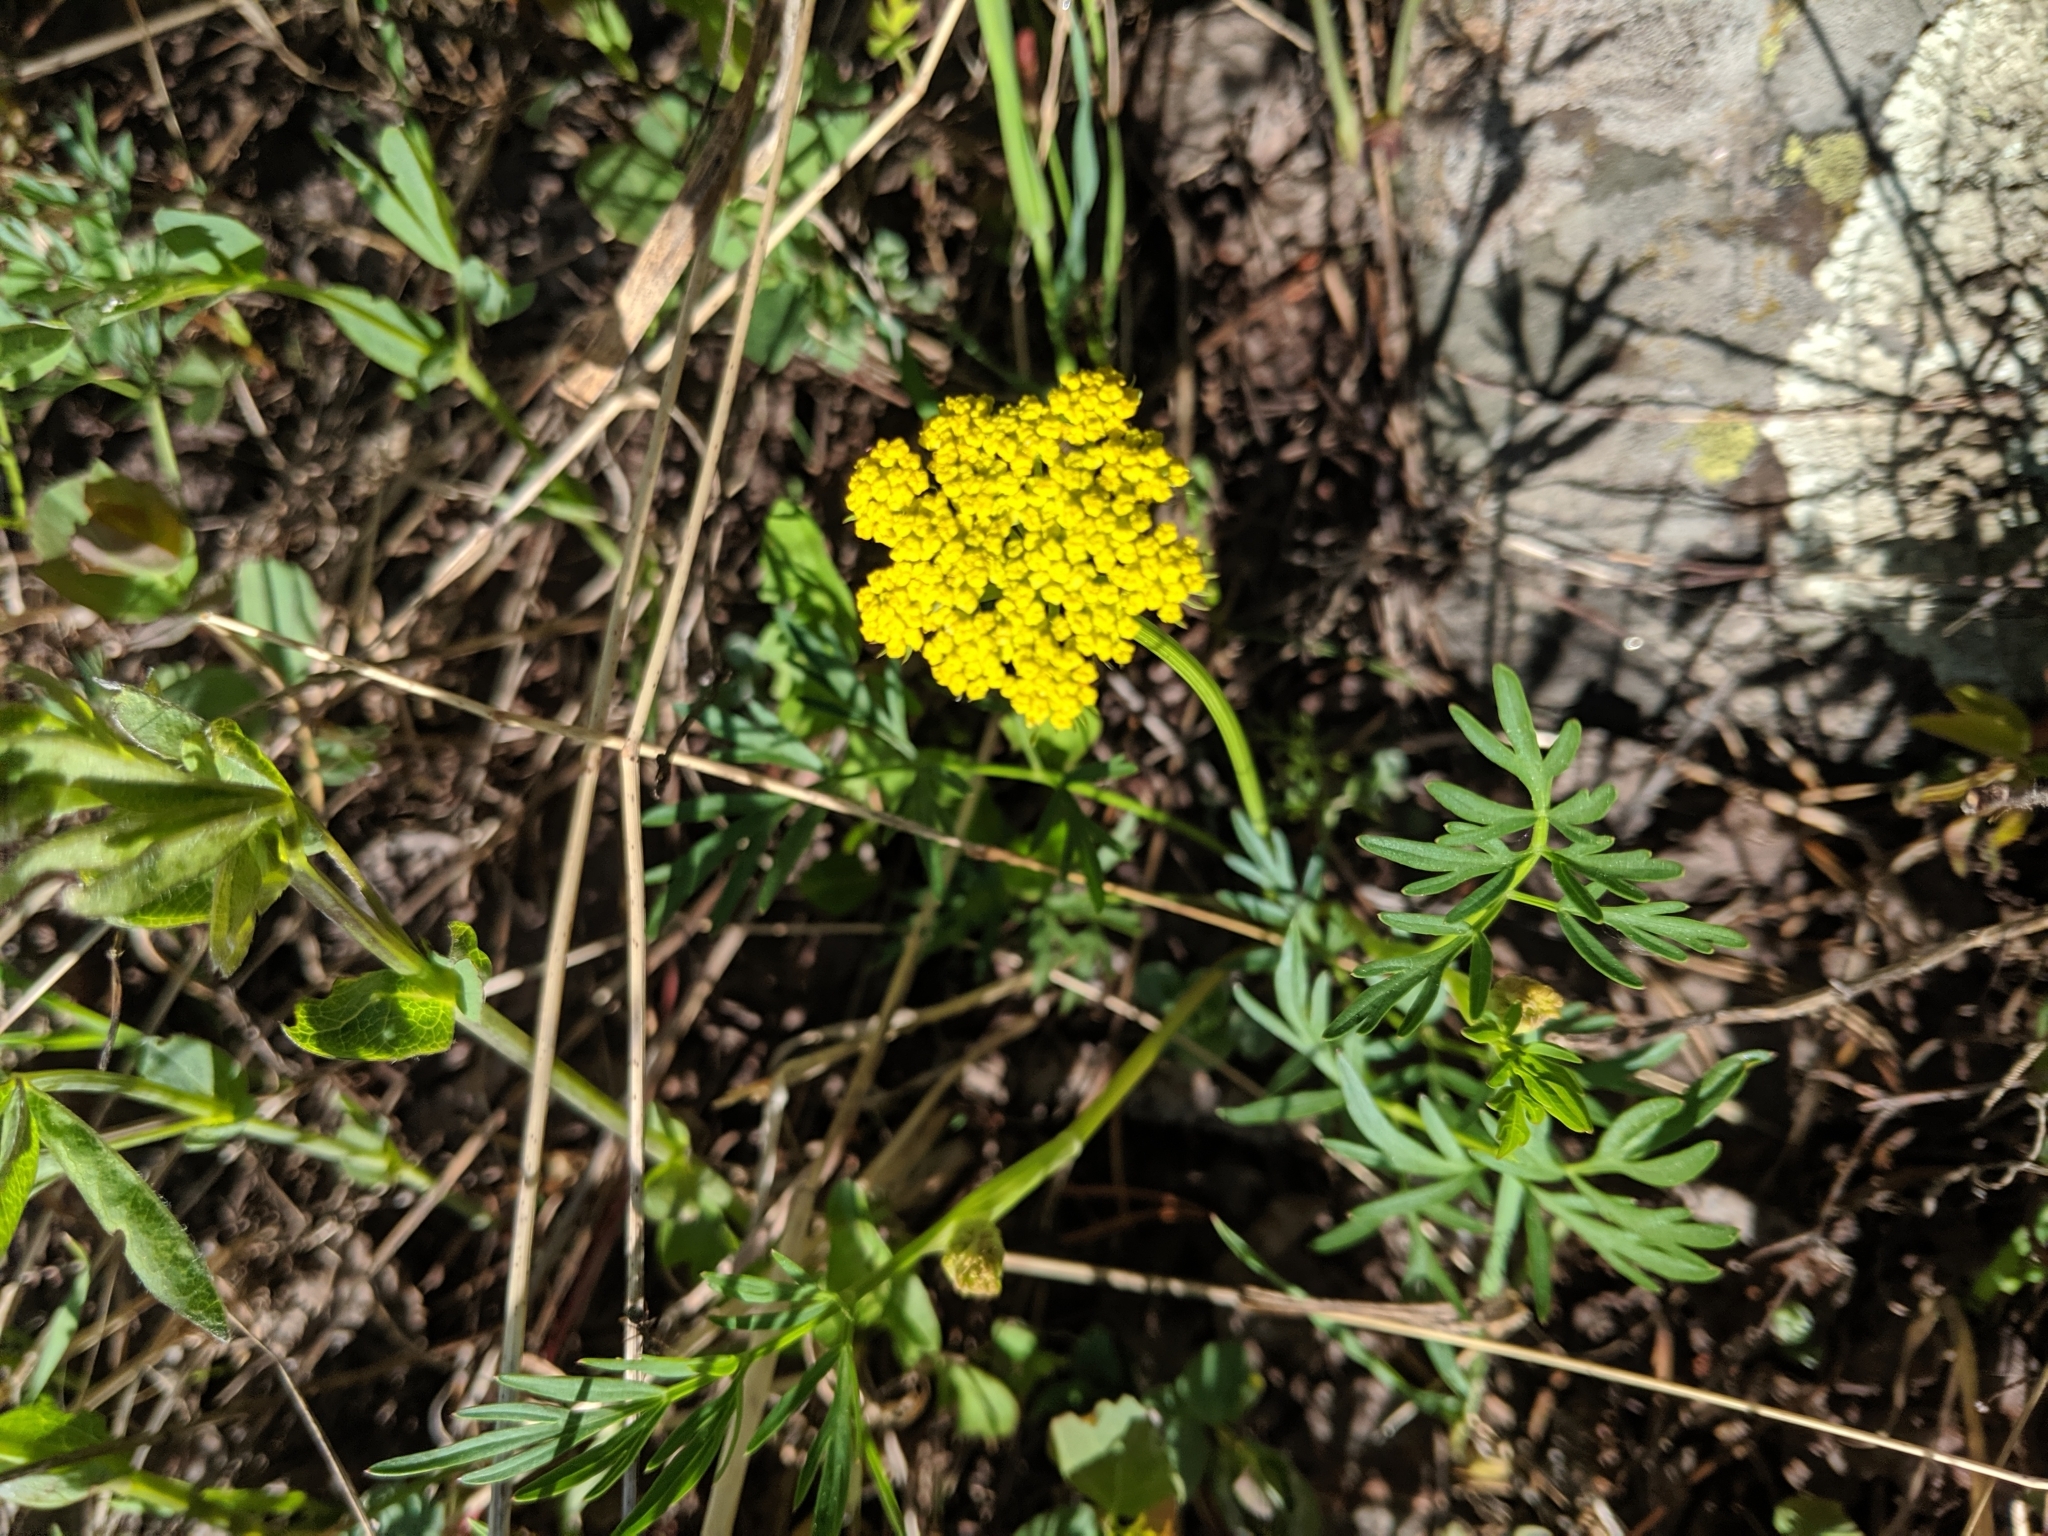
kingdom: Plantae
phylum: Tracheophyta
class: Magnoliopsida
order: Apiales
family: Apiaceae
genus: Cymopterus
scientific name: Cymopterus lemmonii
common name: Lemmon's spring-parsley
